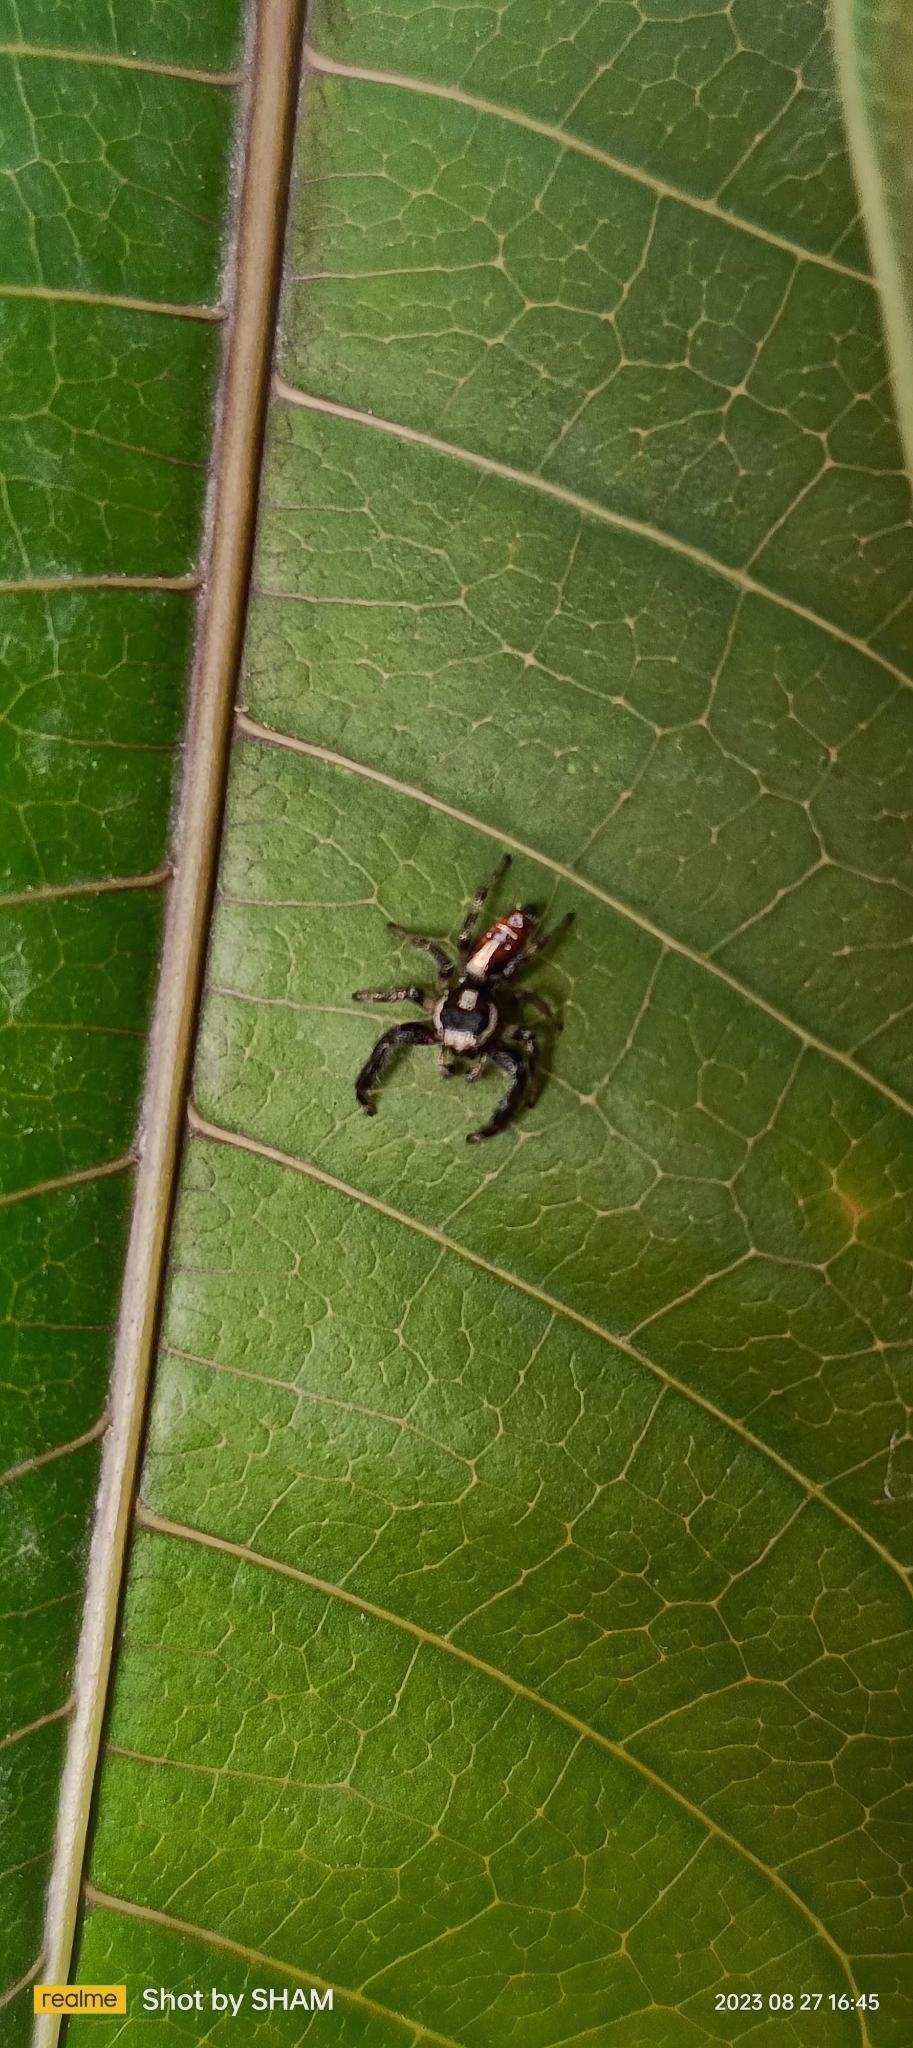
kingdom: Animalia
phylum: Arthropoda
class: Arachnida
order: Araneae
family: Salticidae
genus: Thyene
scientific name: Thyene imperialis
